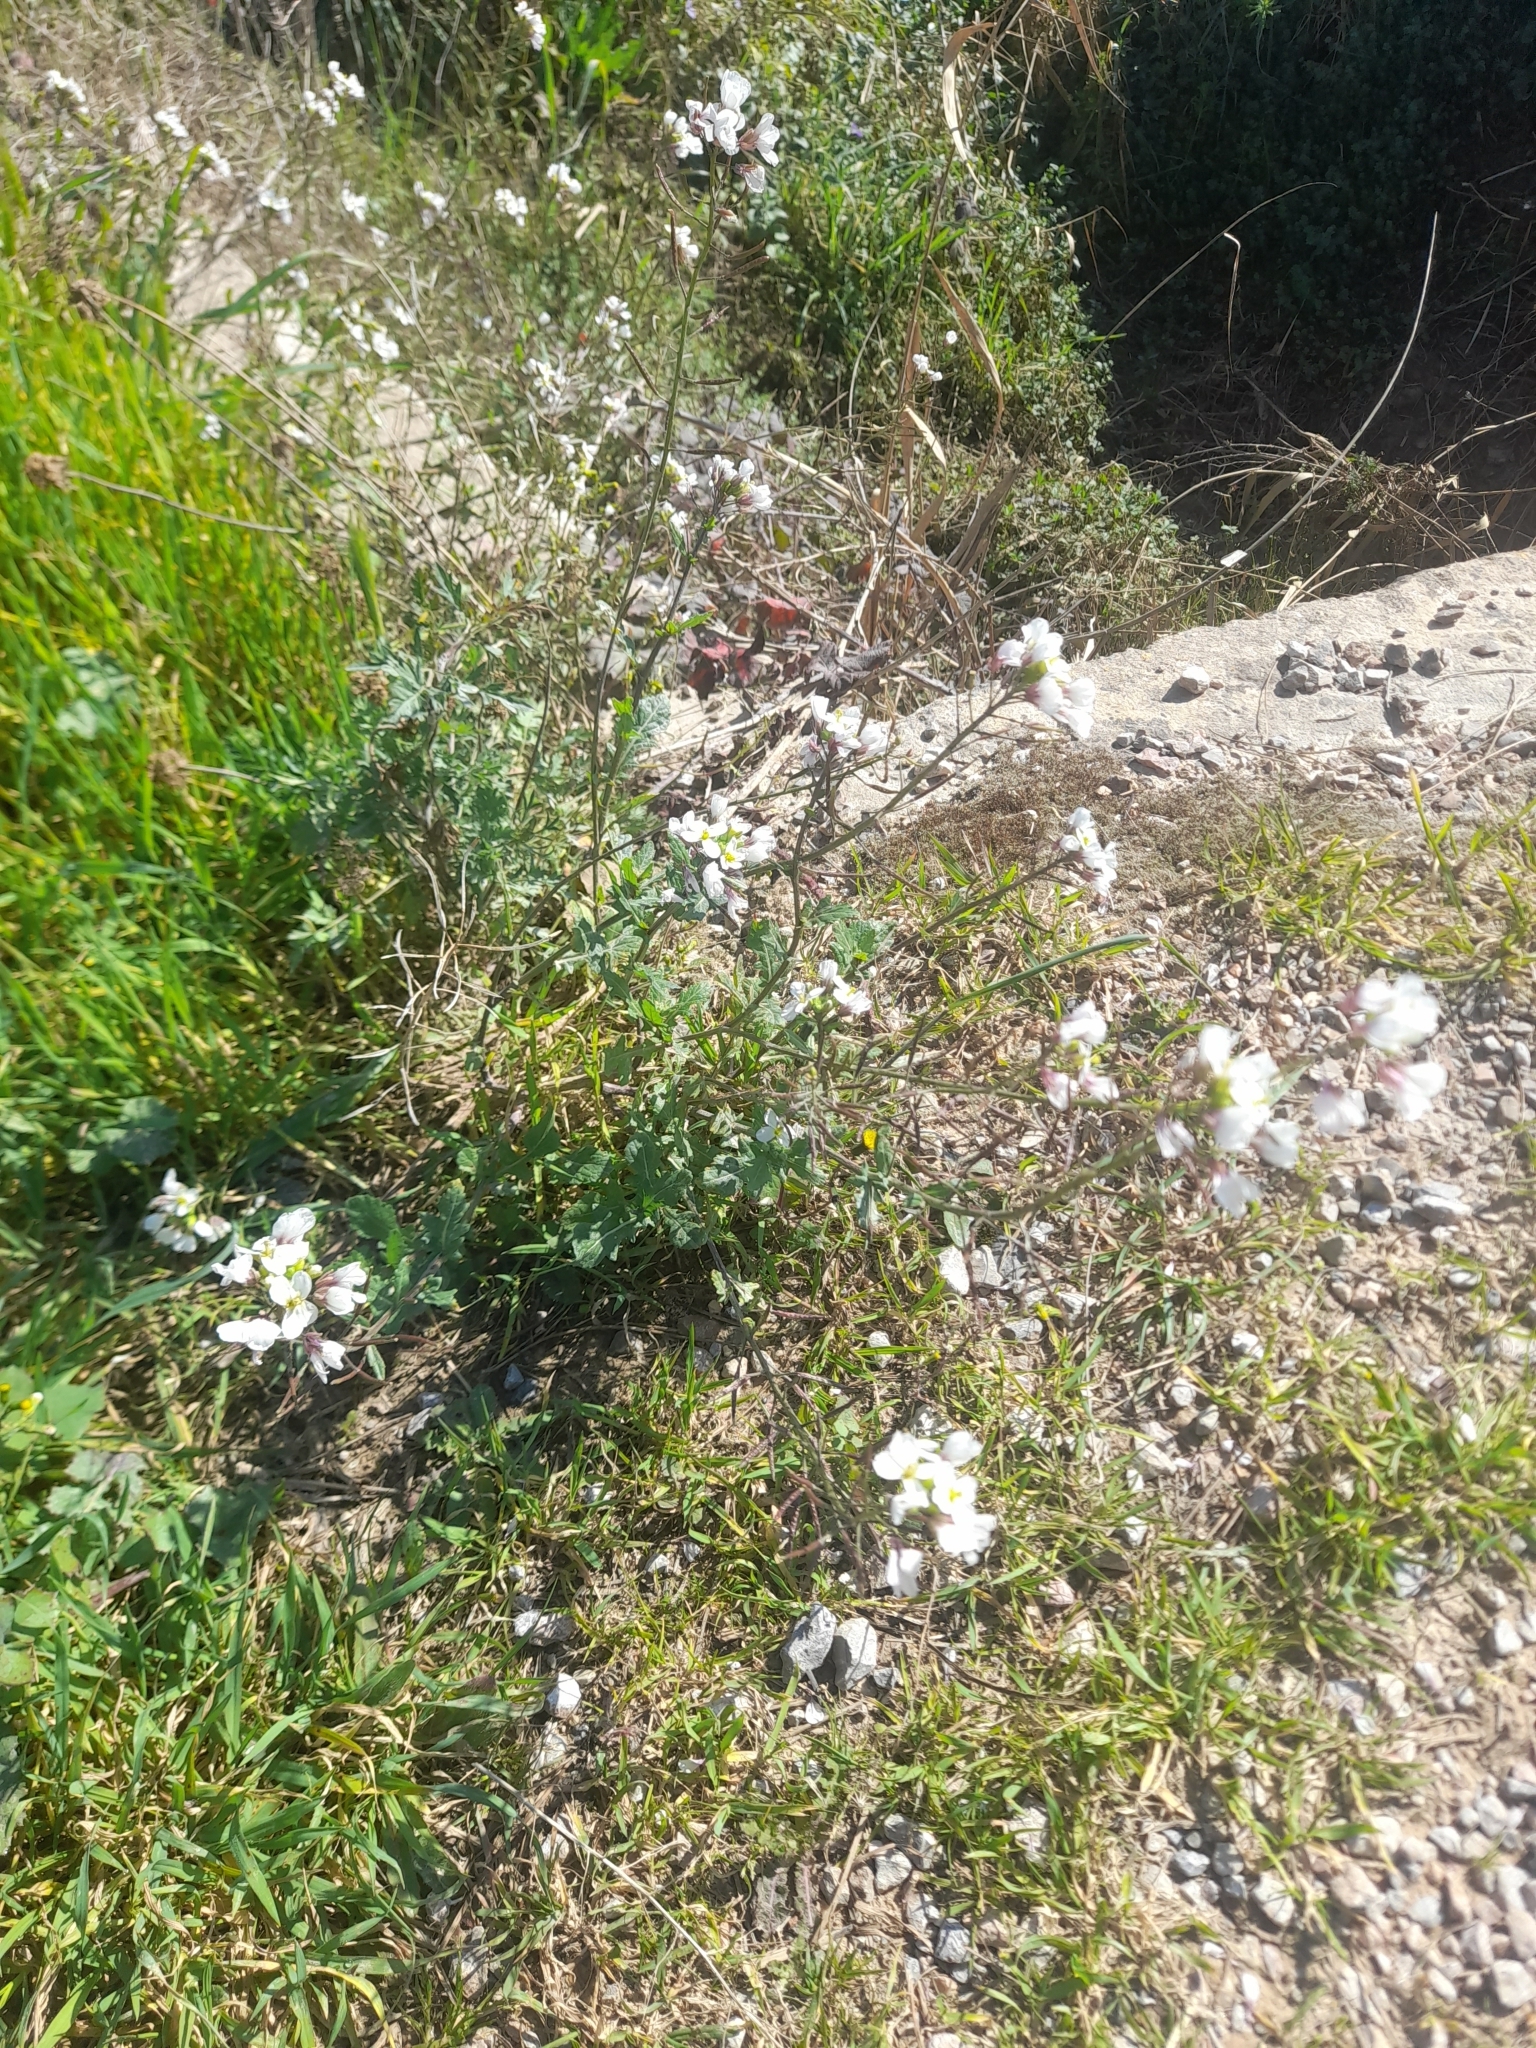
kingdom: Plantae
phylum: Tracheophyta
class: Magnoliopsida
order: Brassicales
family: Brassicaceae
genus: Diplotaxis
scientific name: Diplotaxis erucoides
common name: White rocket
